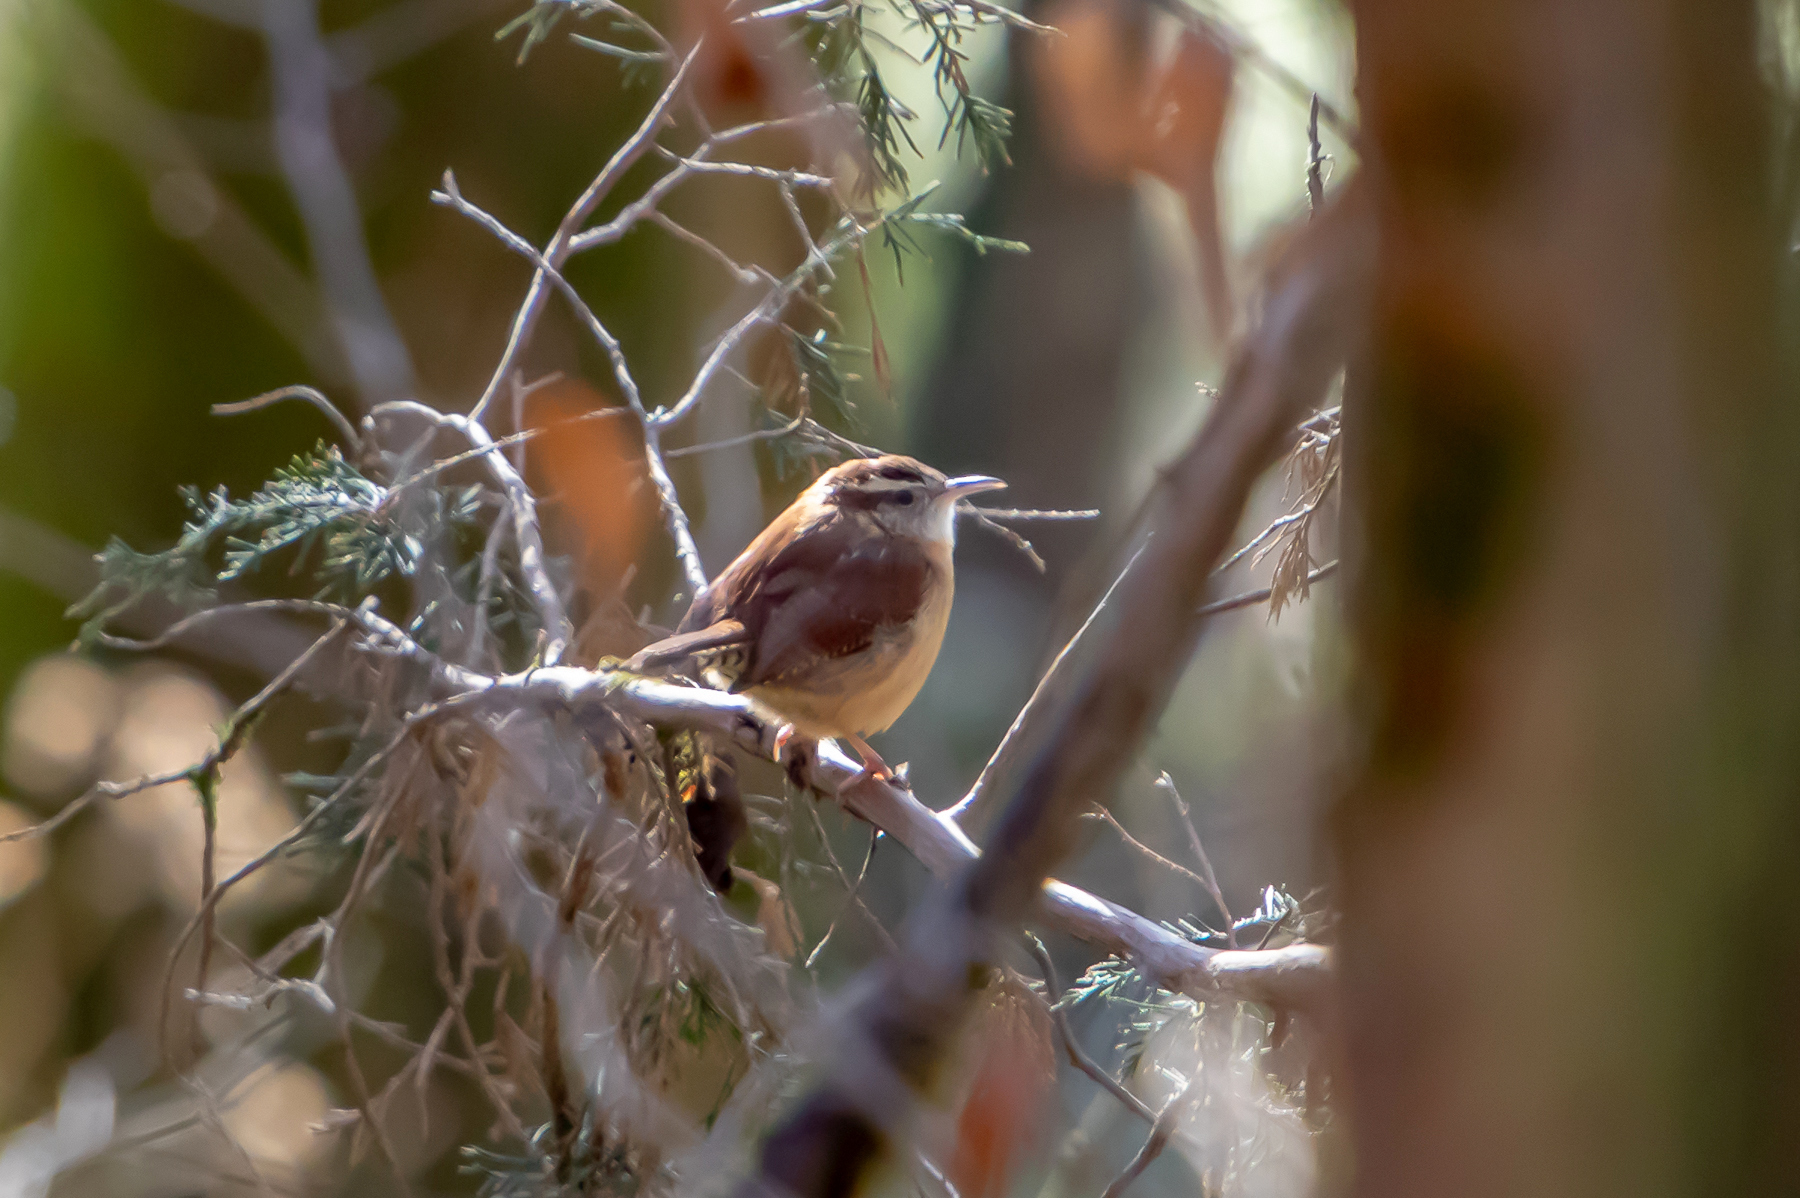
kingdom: Animalia
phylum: Chordata
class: Aves
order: Passeriformes
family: Troglodytidae
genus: Thryothorus
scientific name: Thryothorus ludovicianus
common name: Carolina wren
